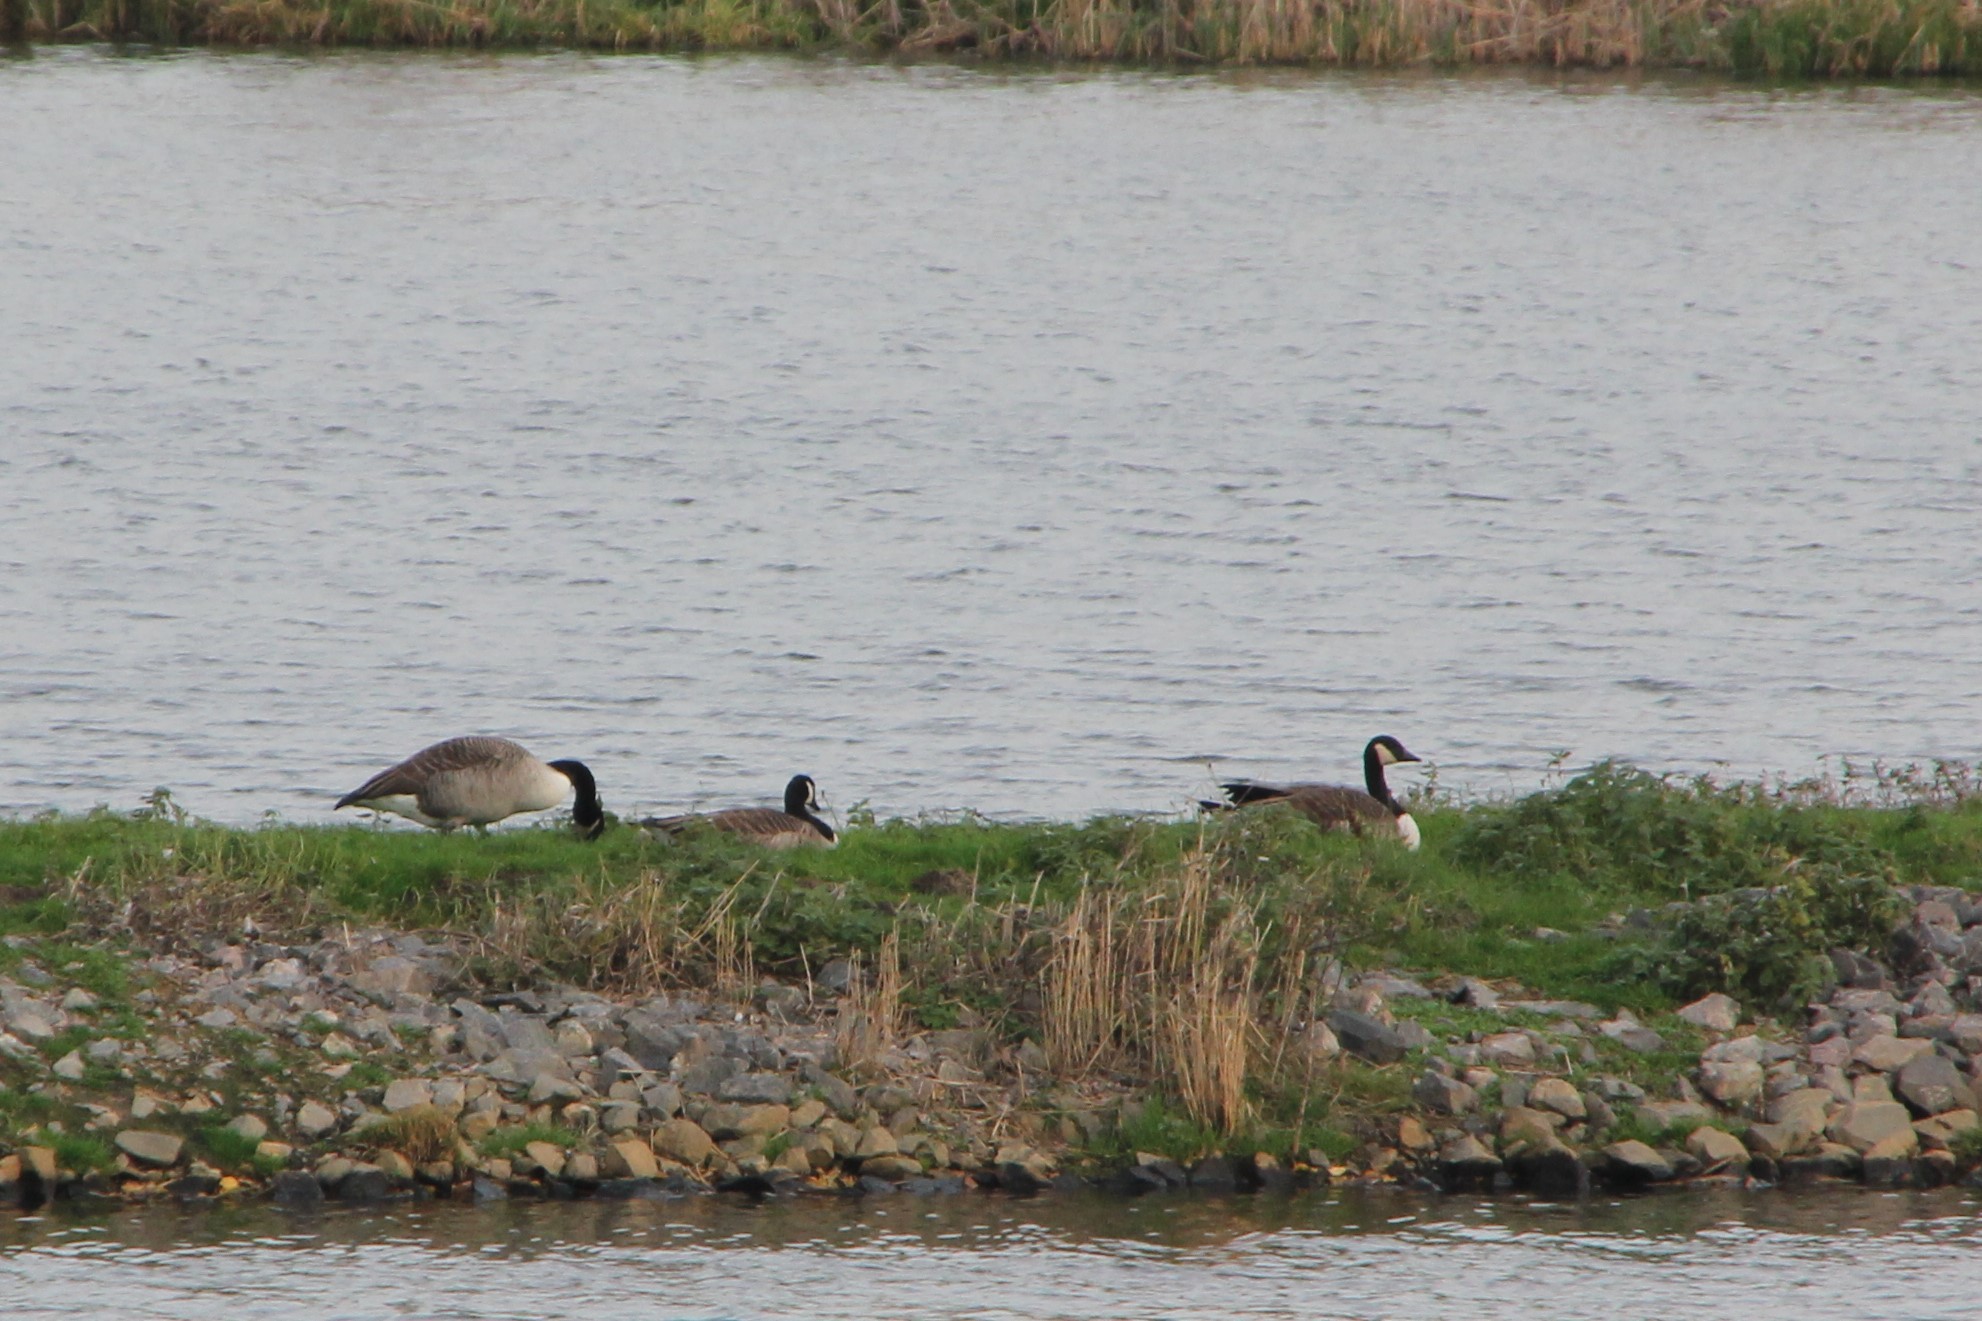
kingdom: Animalia
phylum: Chordata
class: Aves
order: Anseriformes
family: Anatidae
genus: Branta
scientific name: Branta canadensis
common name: Canada goose
